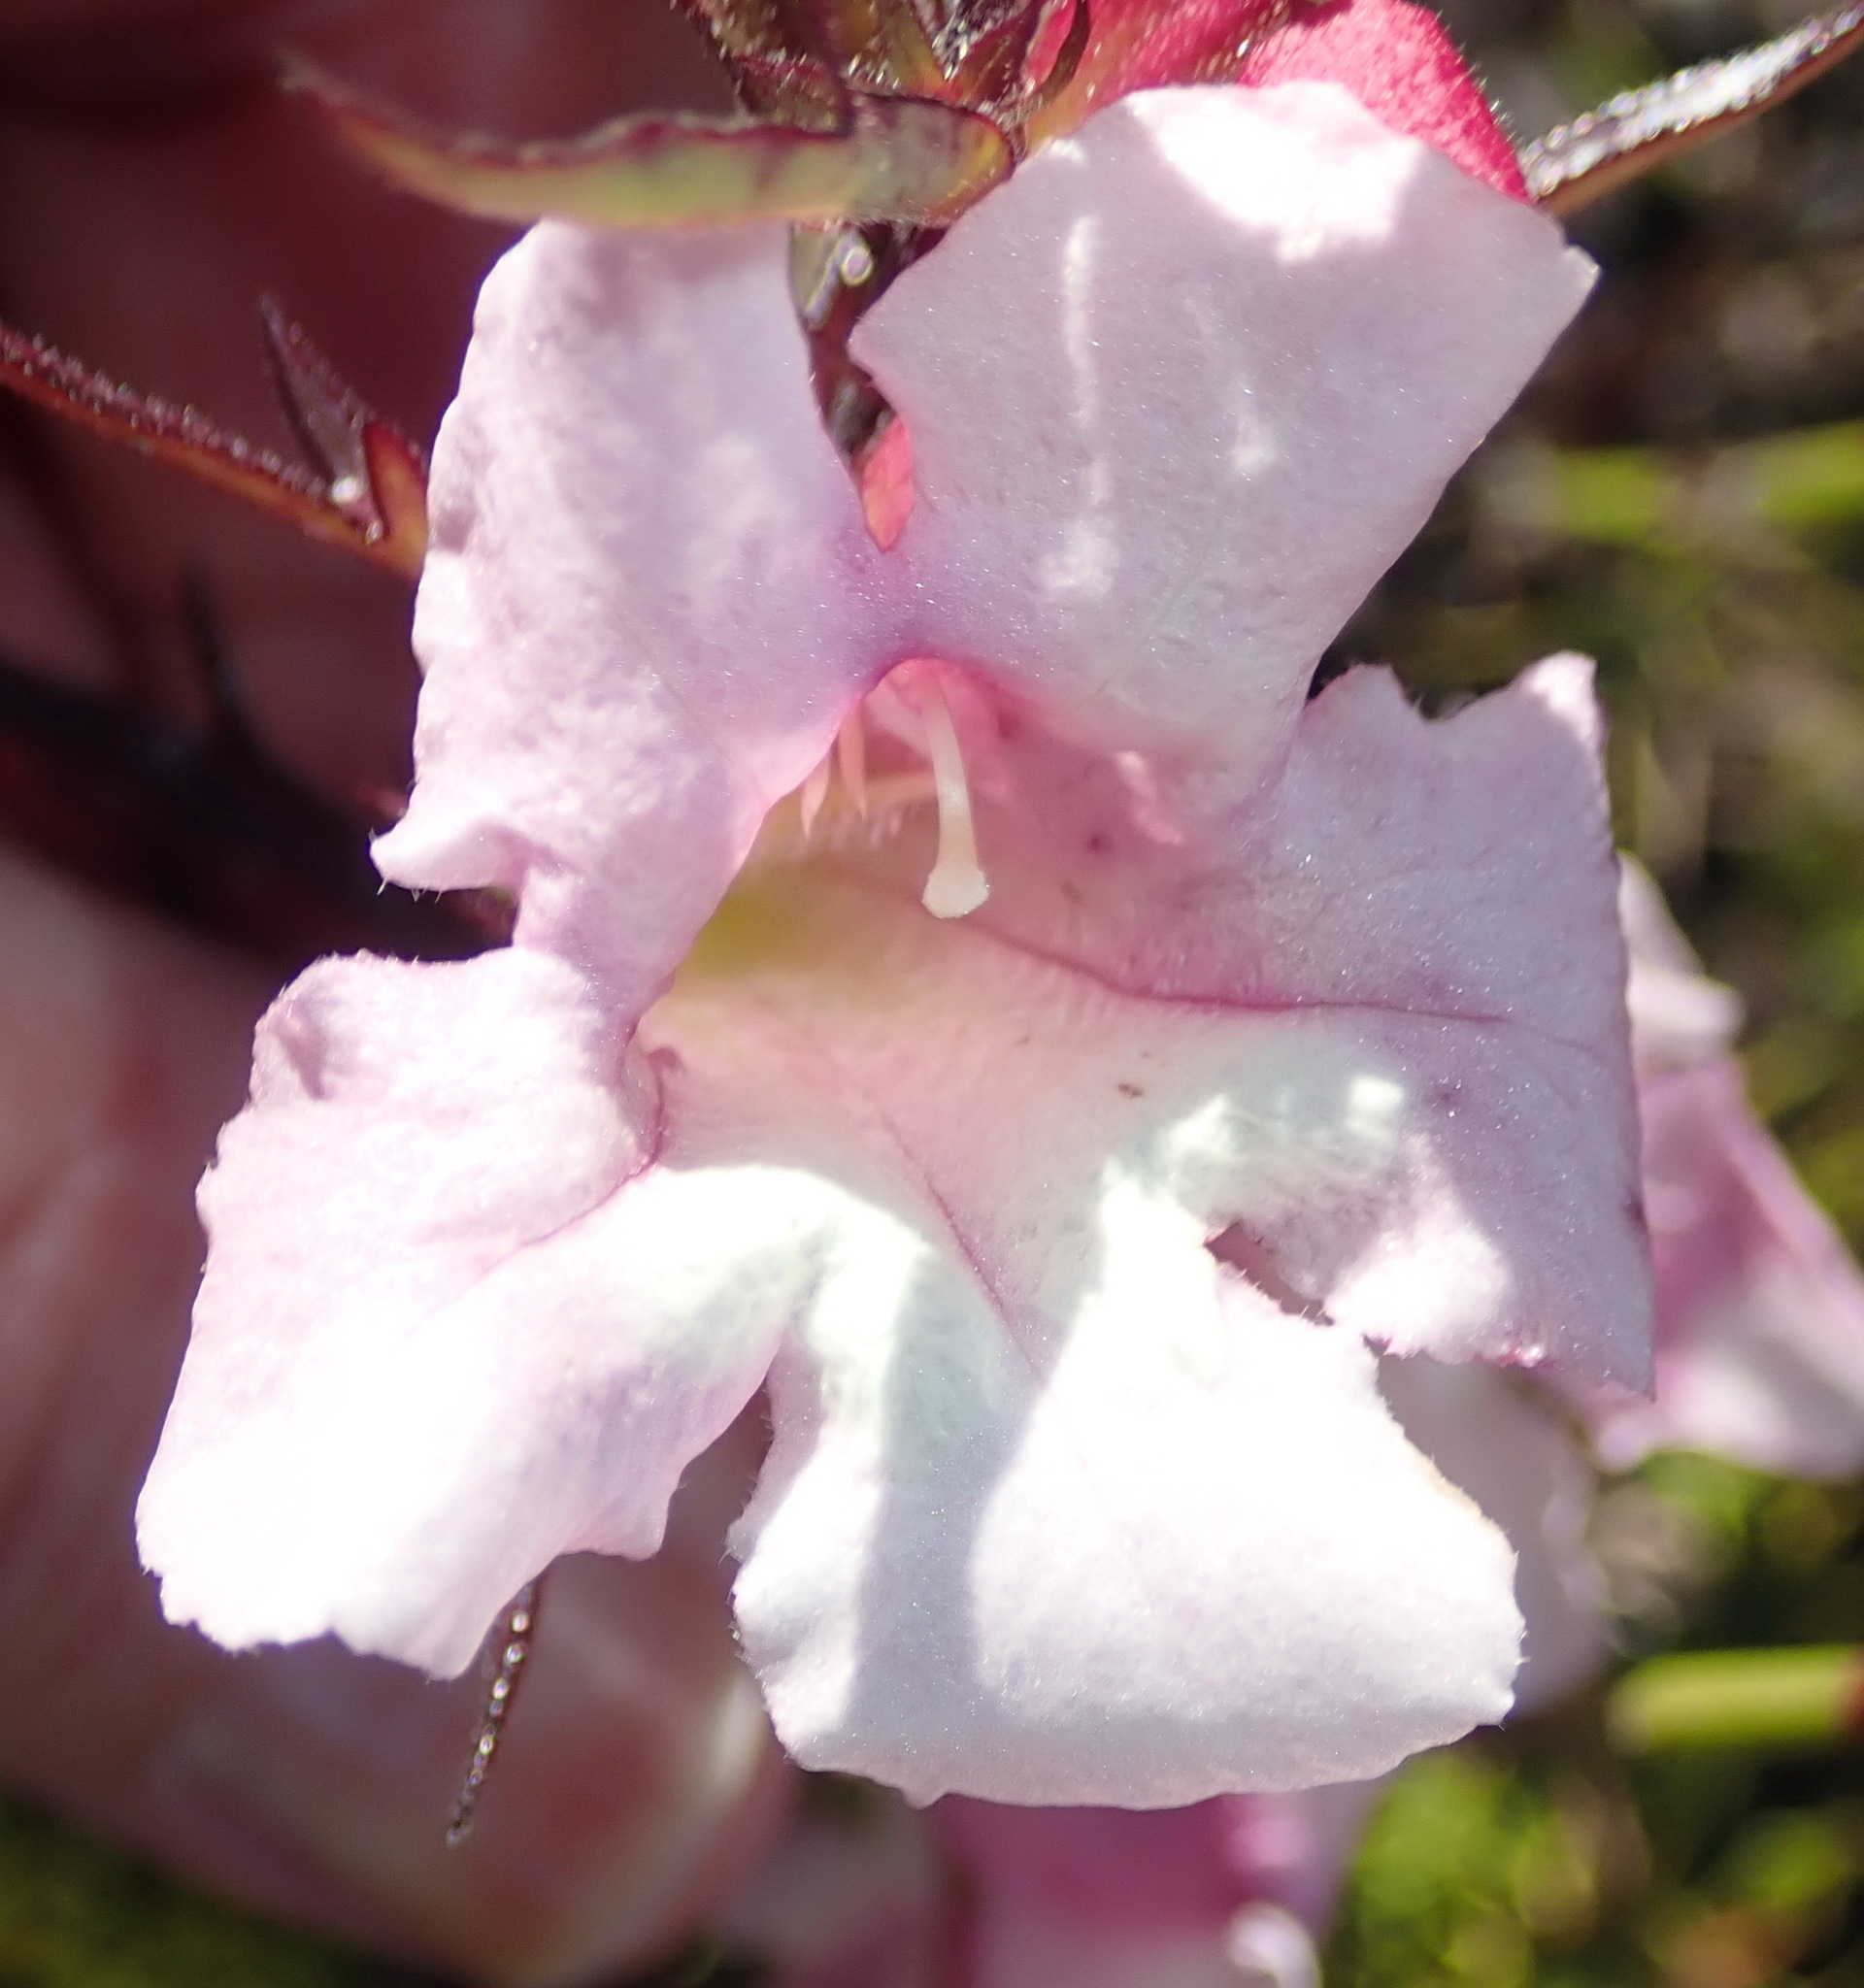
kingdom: Plantae
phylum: Tracheophyta
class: Magnoliopsida
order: Lamiales
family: Orobanchaceae
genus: Graderia
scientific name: Graderia scabra
